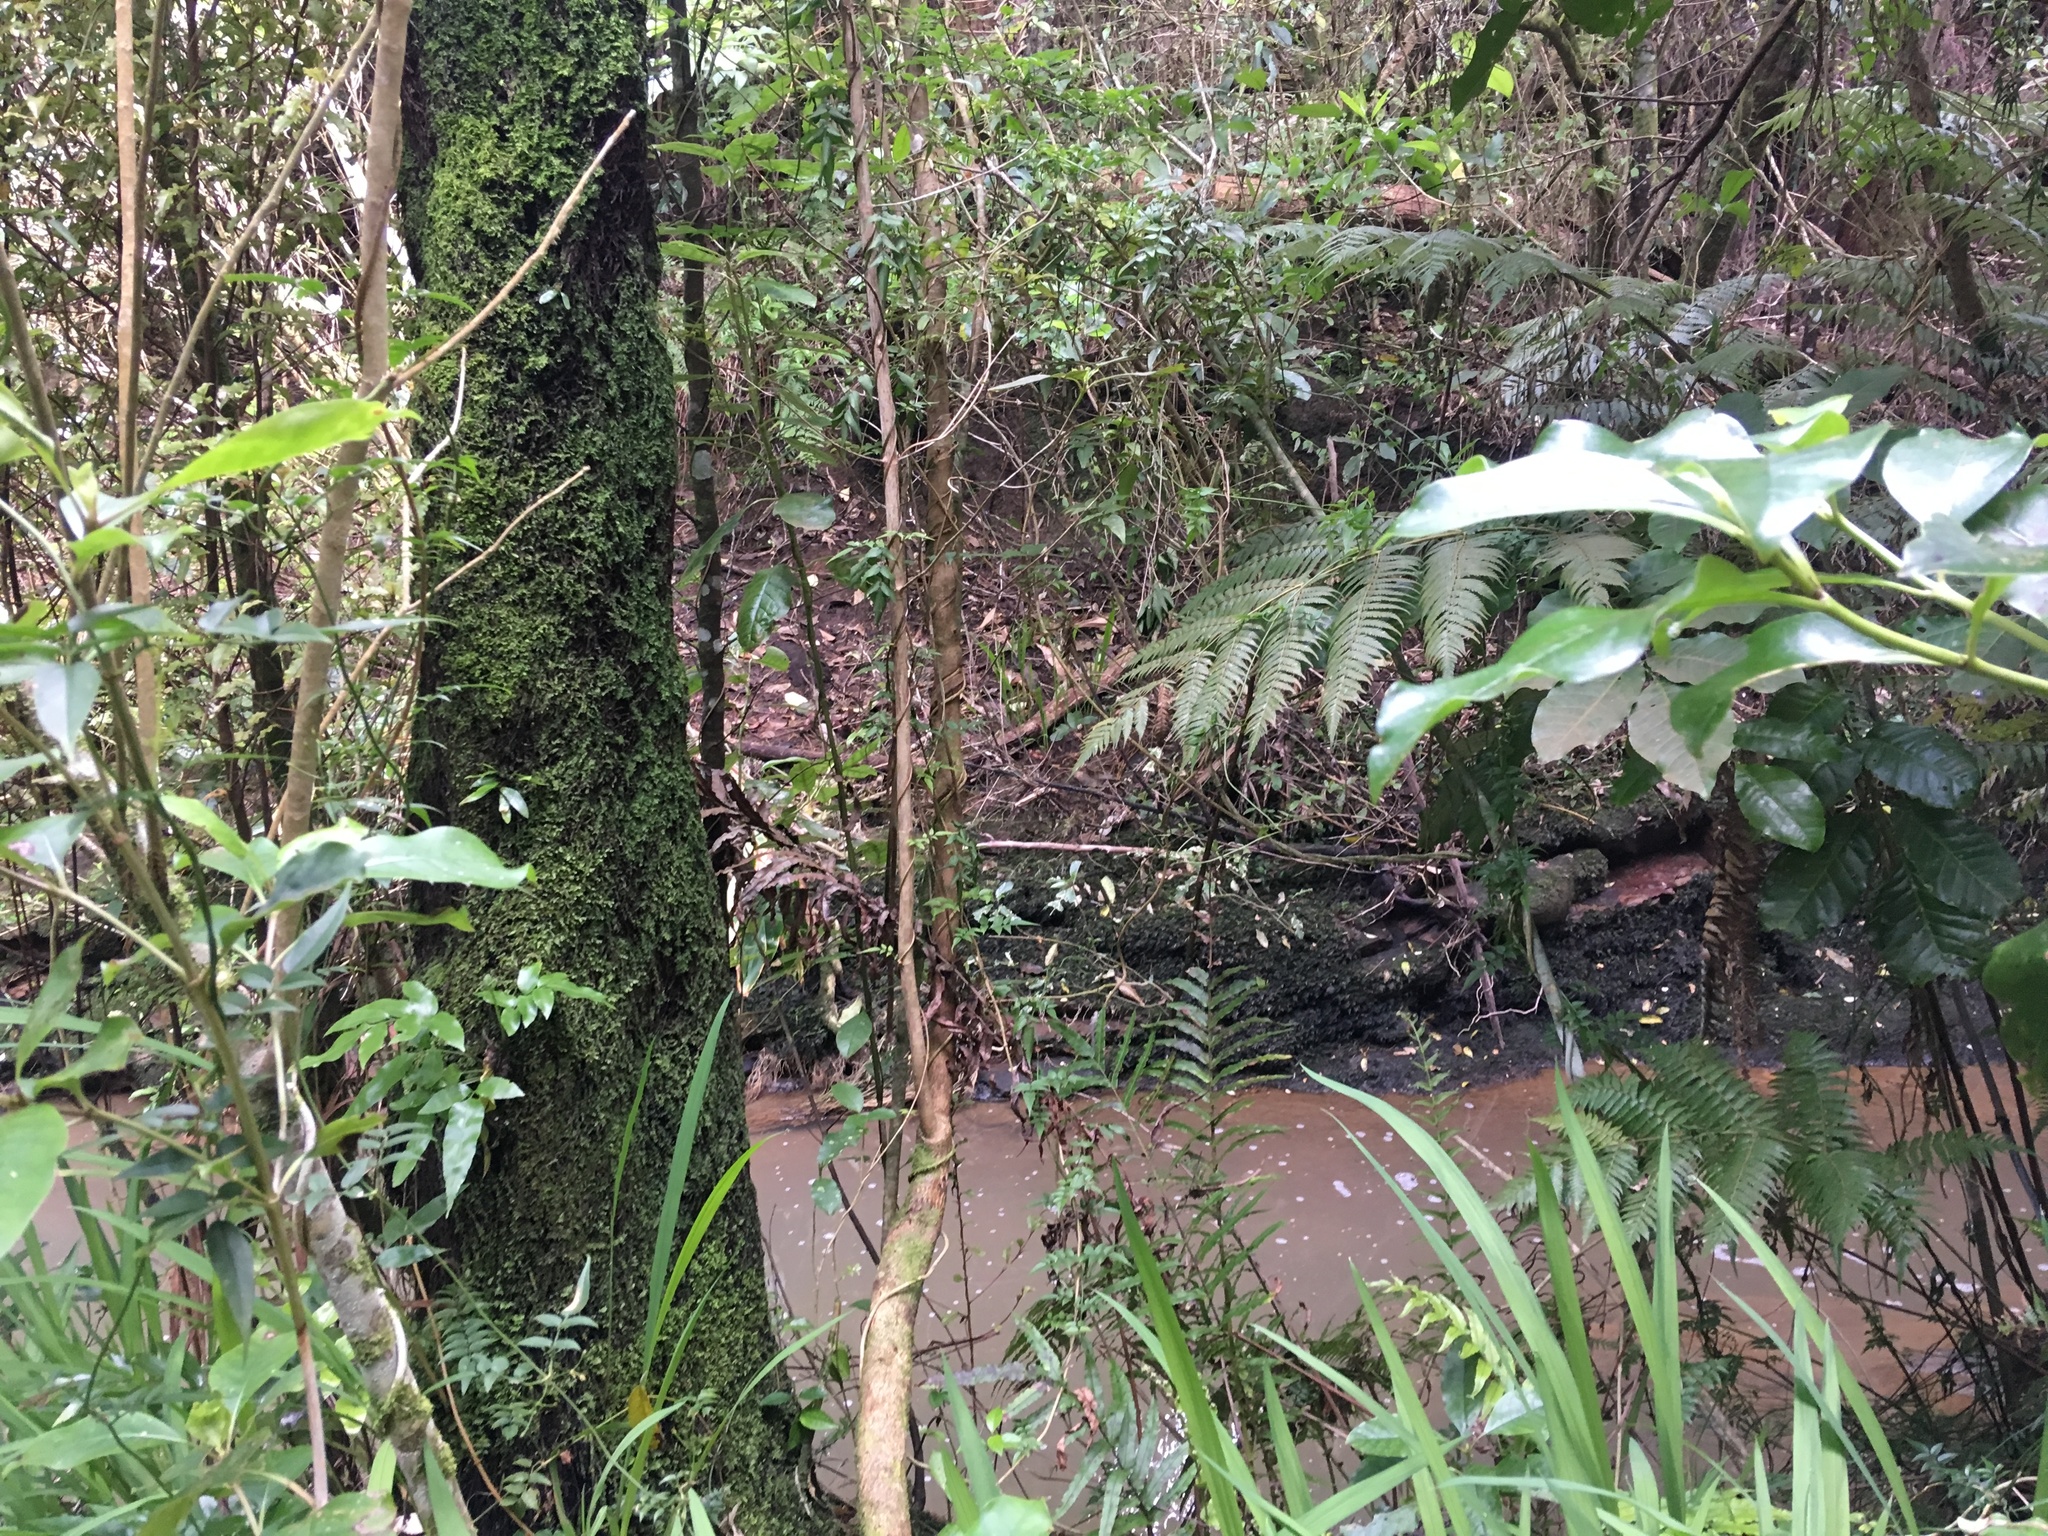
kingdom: Plantae
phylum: Tracheophyta
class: Magnoliopsida
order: Lamiales
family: Oleaceae
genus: Jasminum
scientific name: Jasminum polyanthum
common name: Pink jasmine
